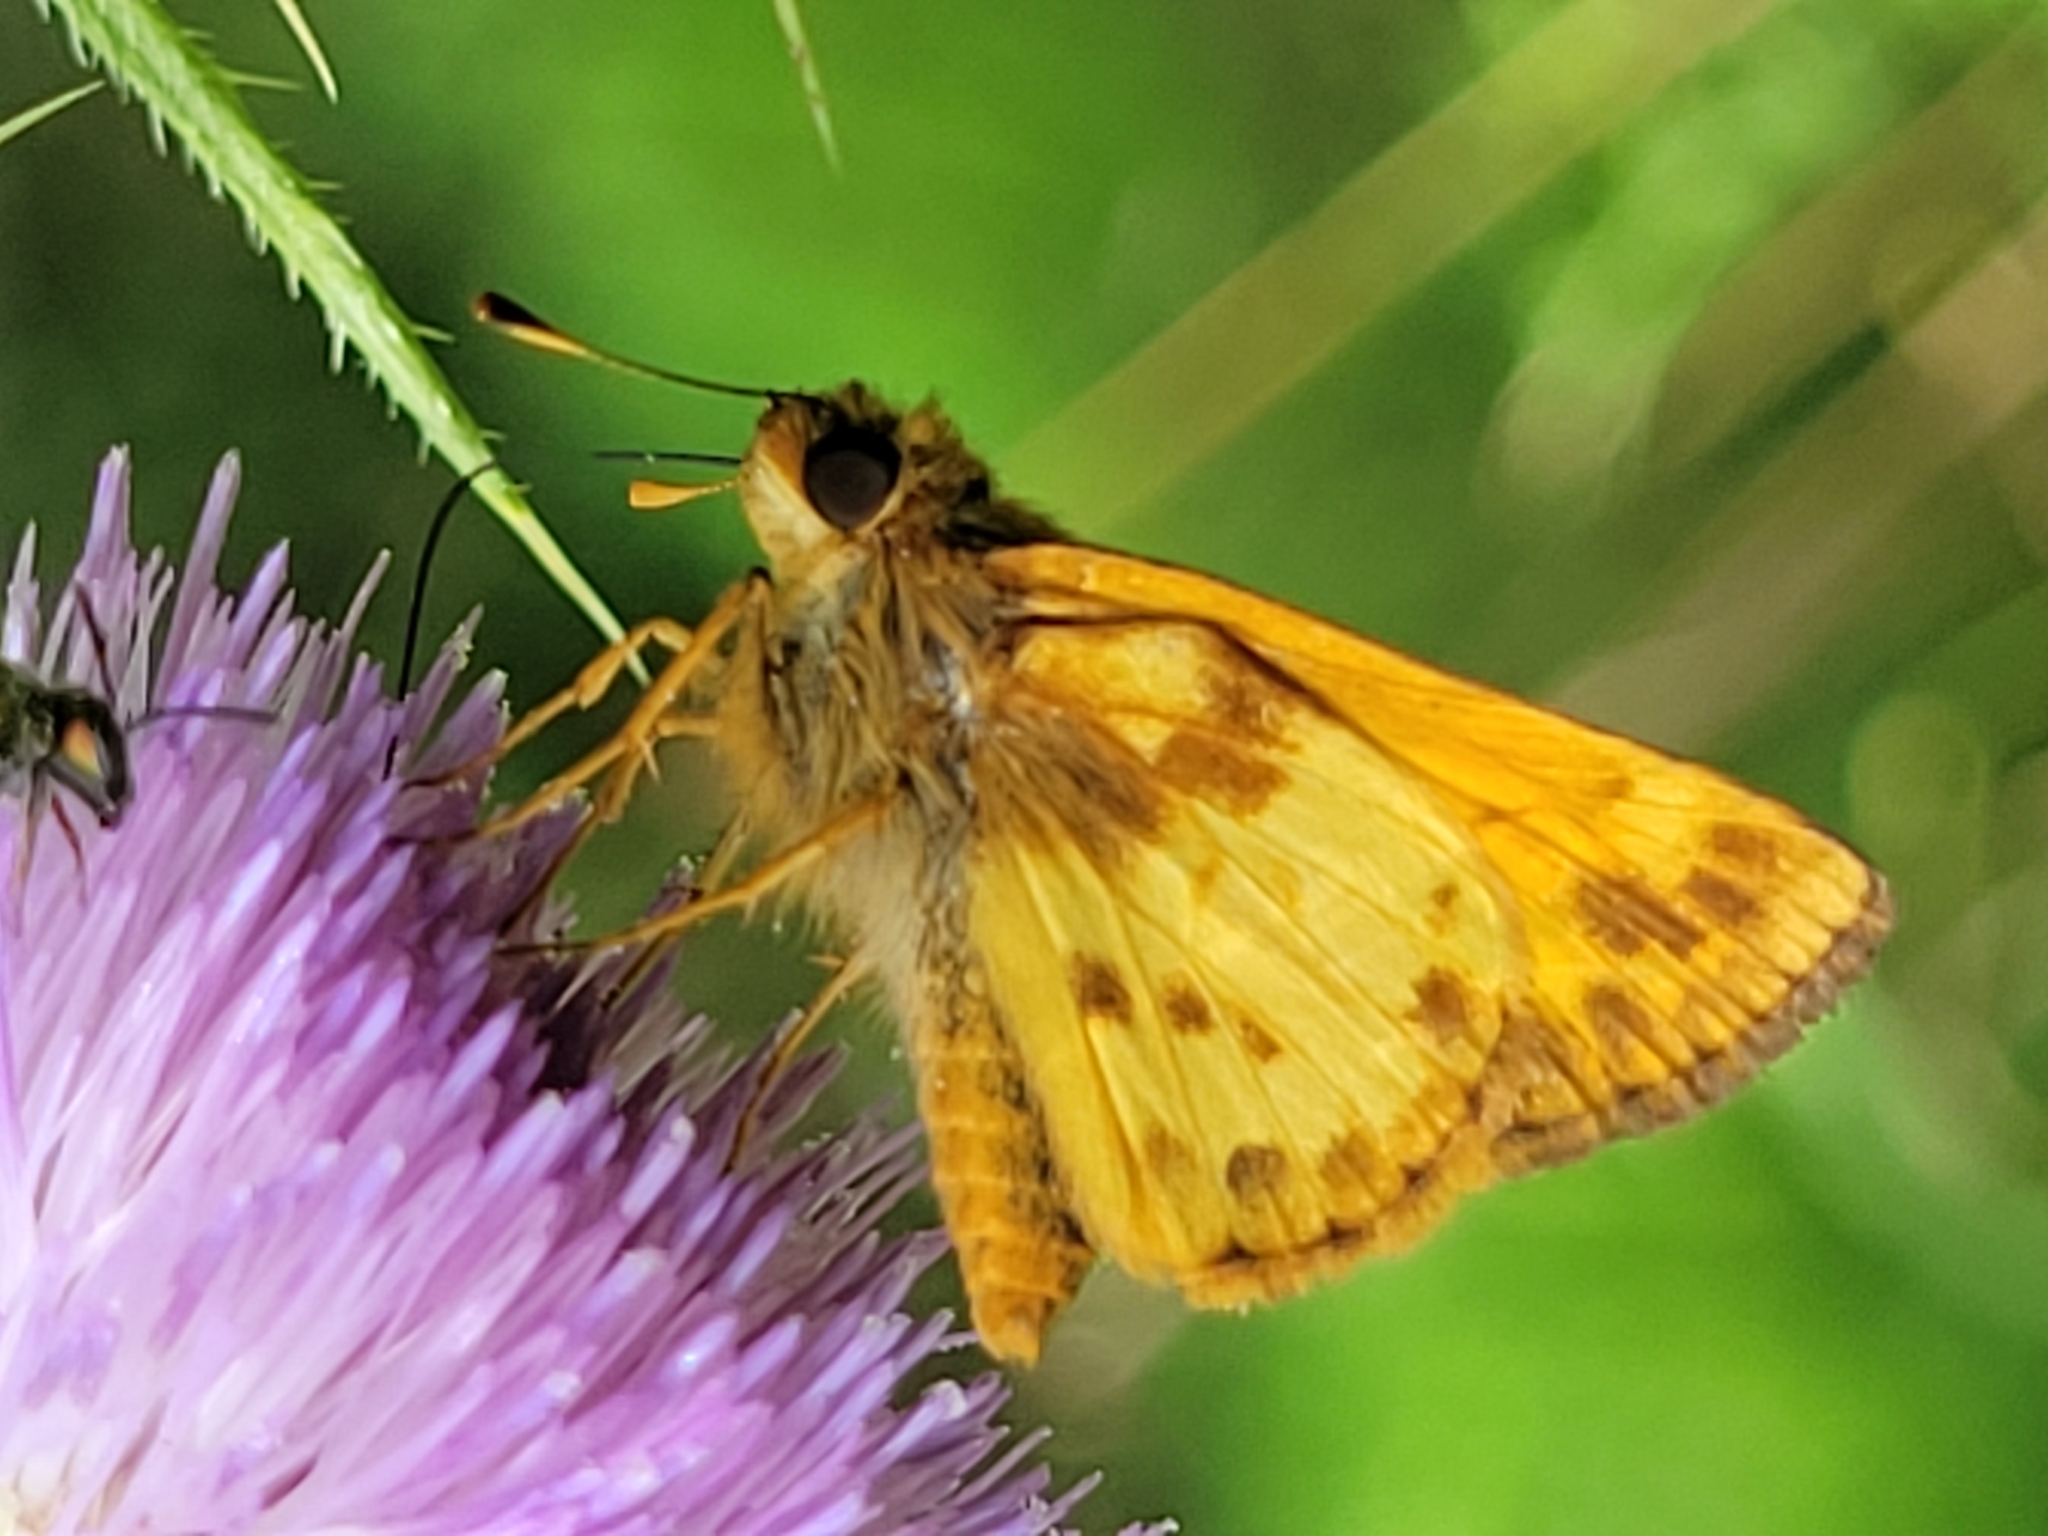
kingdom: Animalia
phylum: Arthropoda
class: Insecta
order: Lepidoptera
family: Hesperiidae
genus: Lon
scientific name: Lon zabulon
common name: Zabulon skipper
